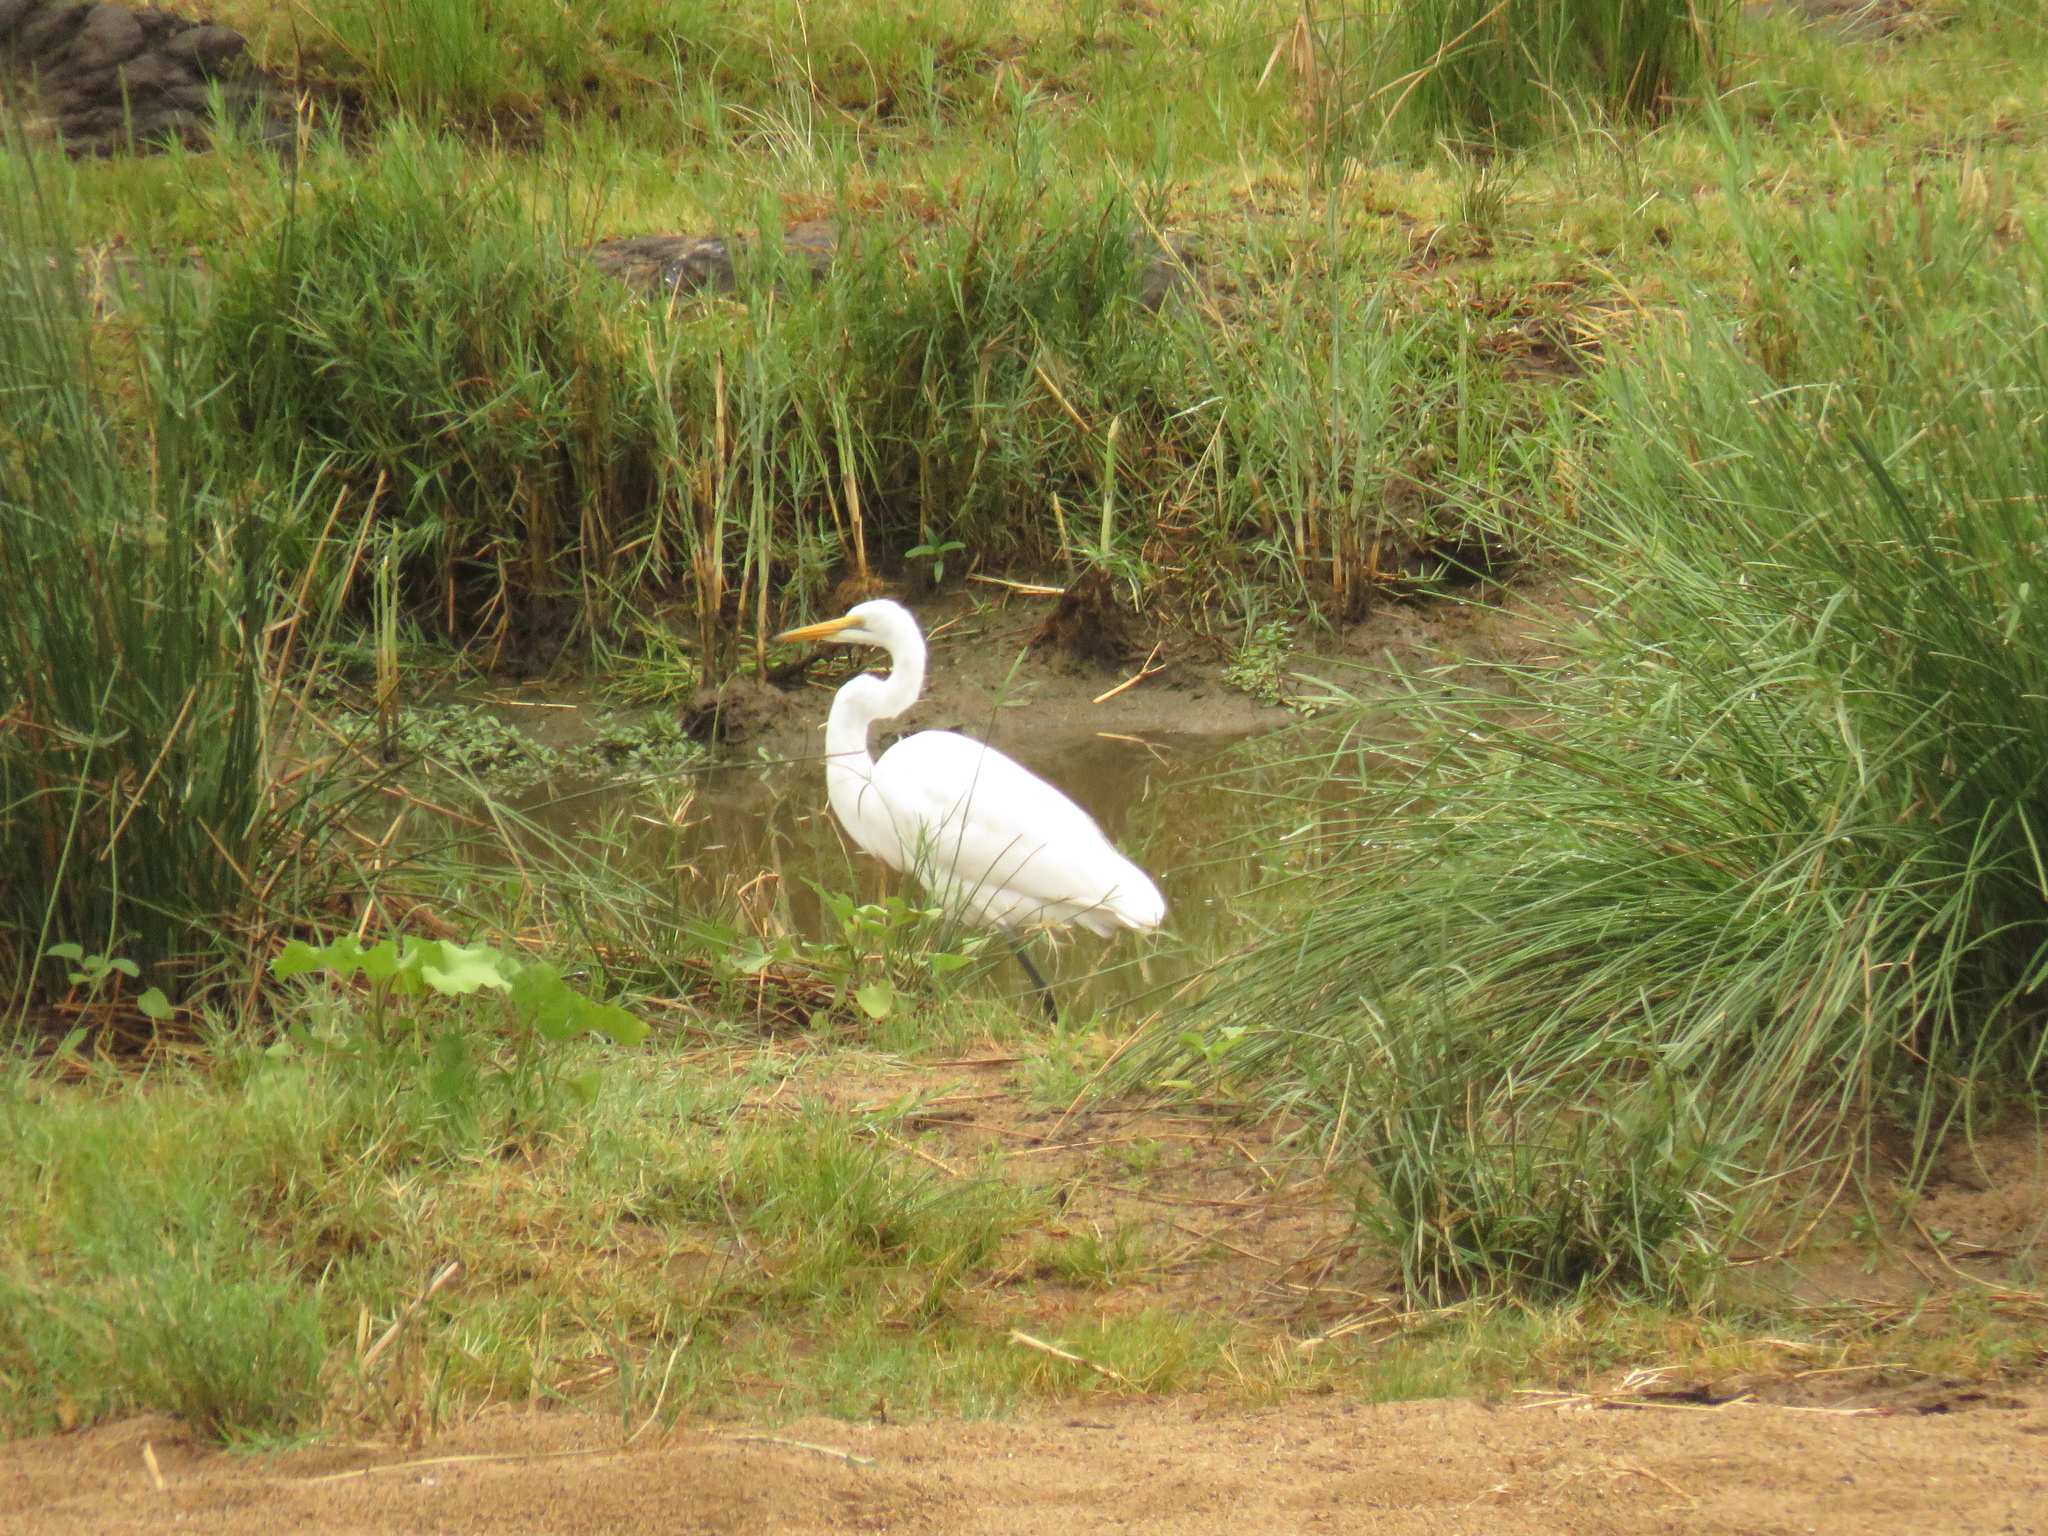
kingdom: Animalia
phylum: Chordata
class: Aves
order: Pelecaniformes
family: Ardeidae
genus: Ardea
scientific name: Ardea alba
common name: Great egret
